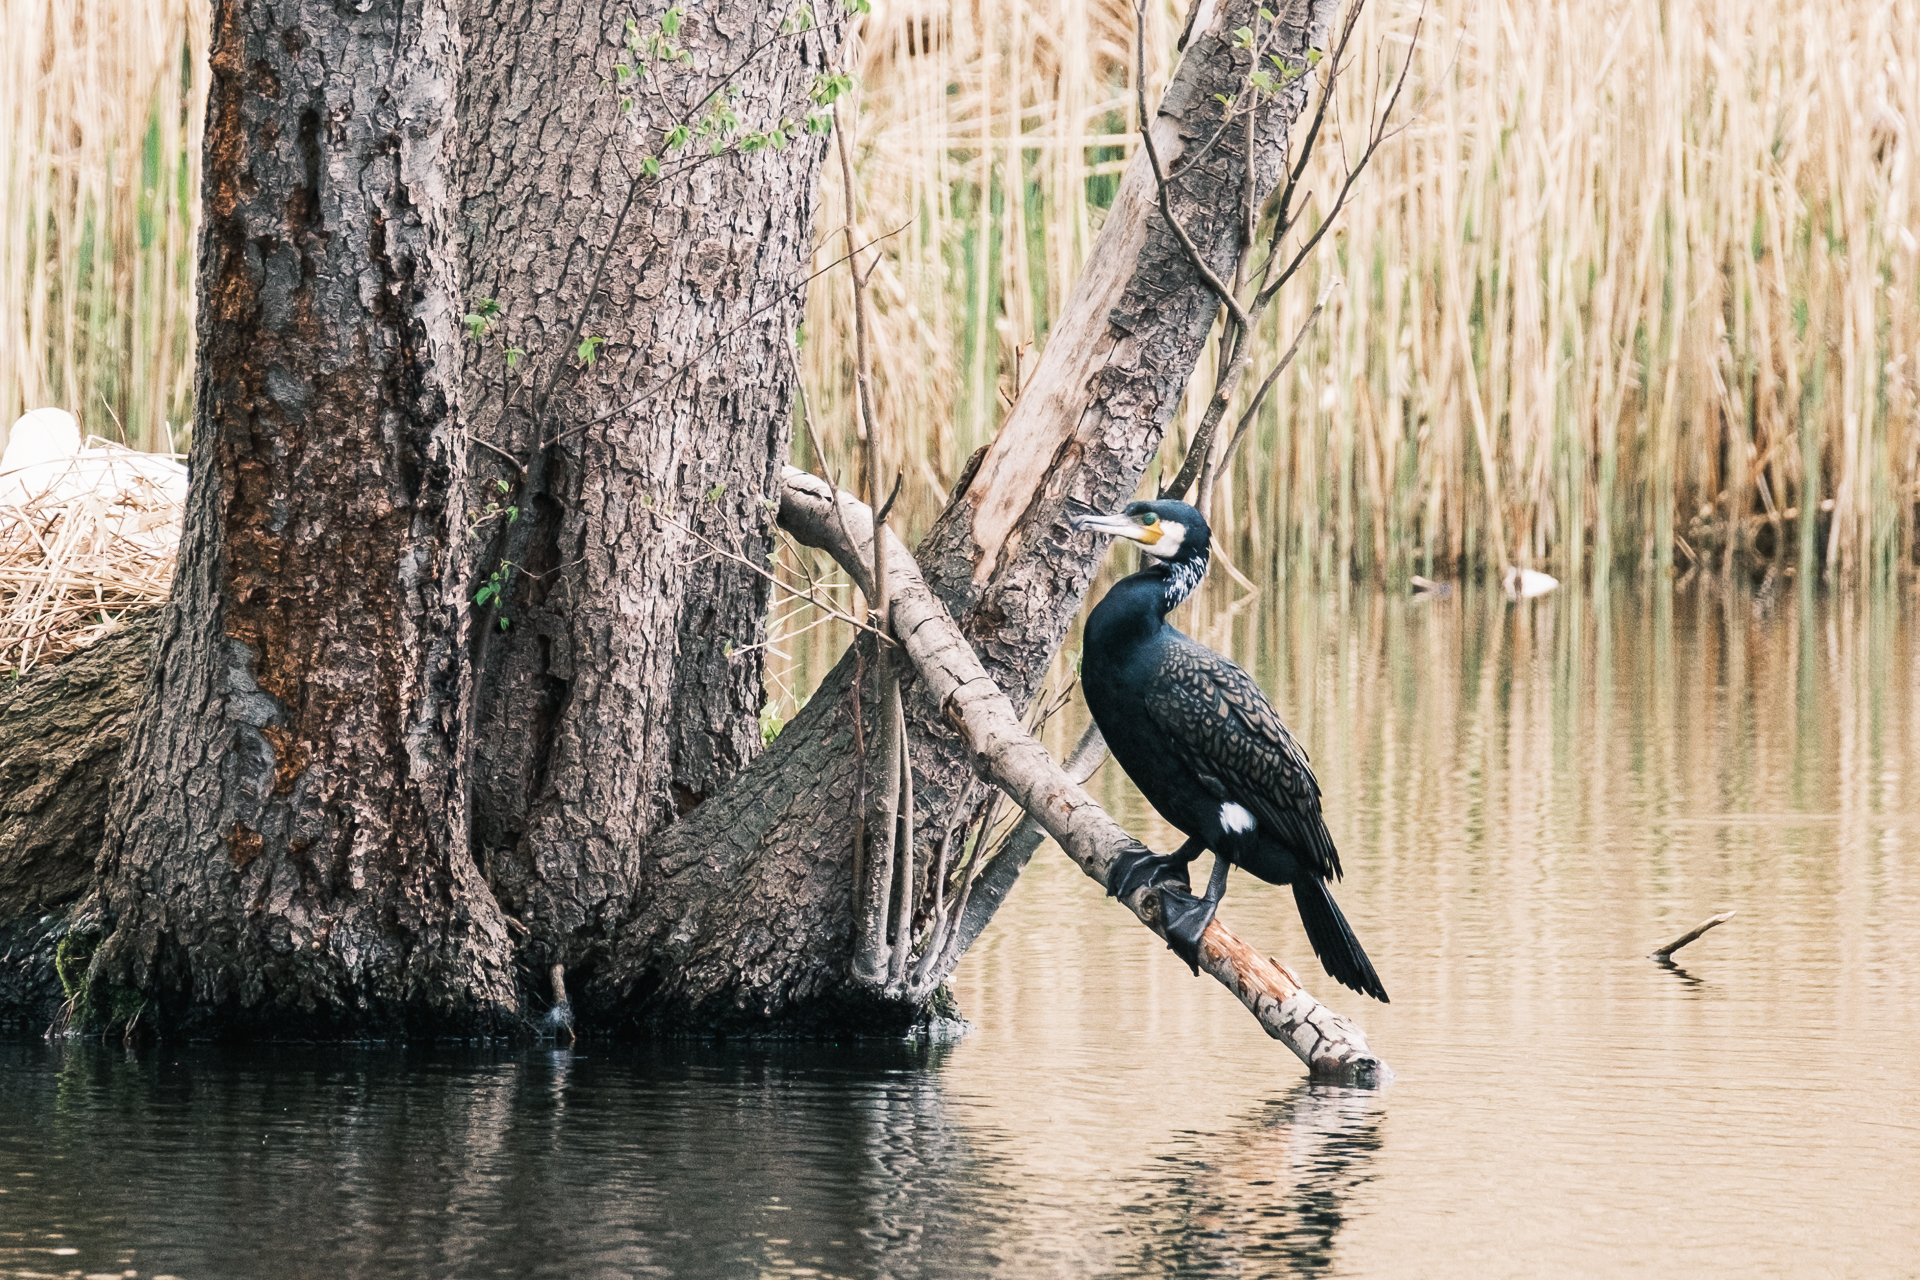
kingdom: Animalia
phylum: Chordata
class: Aves
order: Suliformes
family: Phalacrocoracidae
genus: Phalacrocorax
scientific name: Phalacrocorax carbo
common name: Great cormorant
